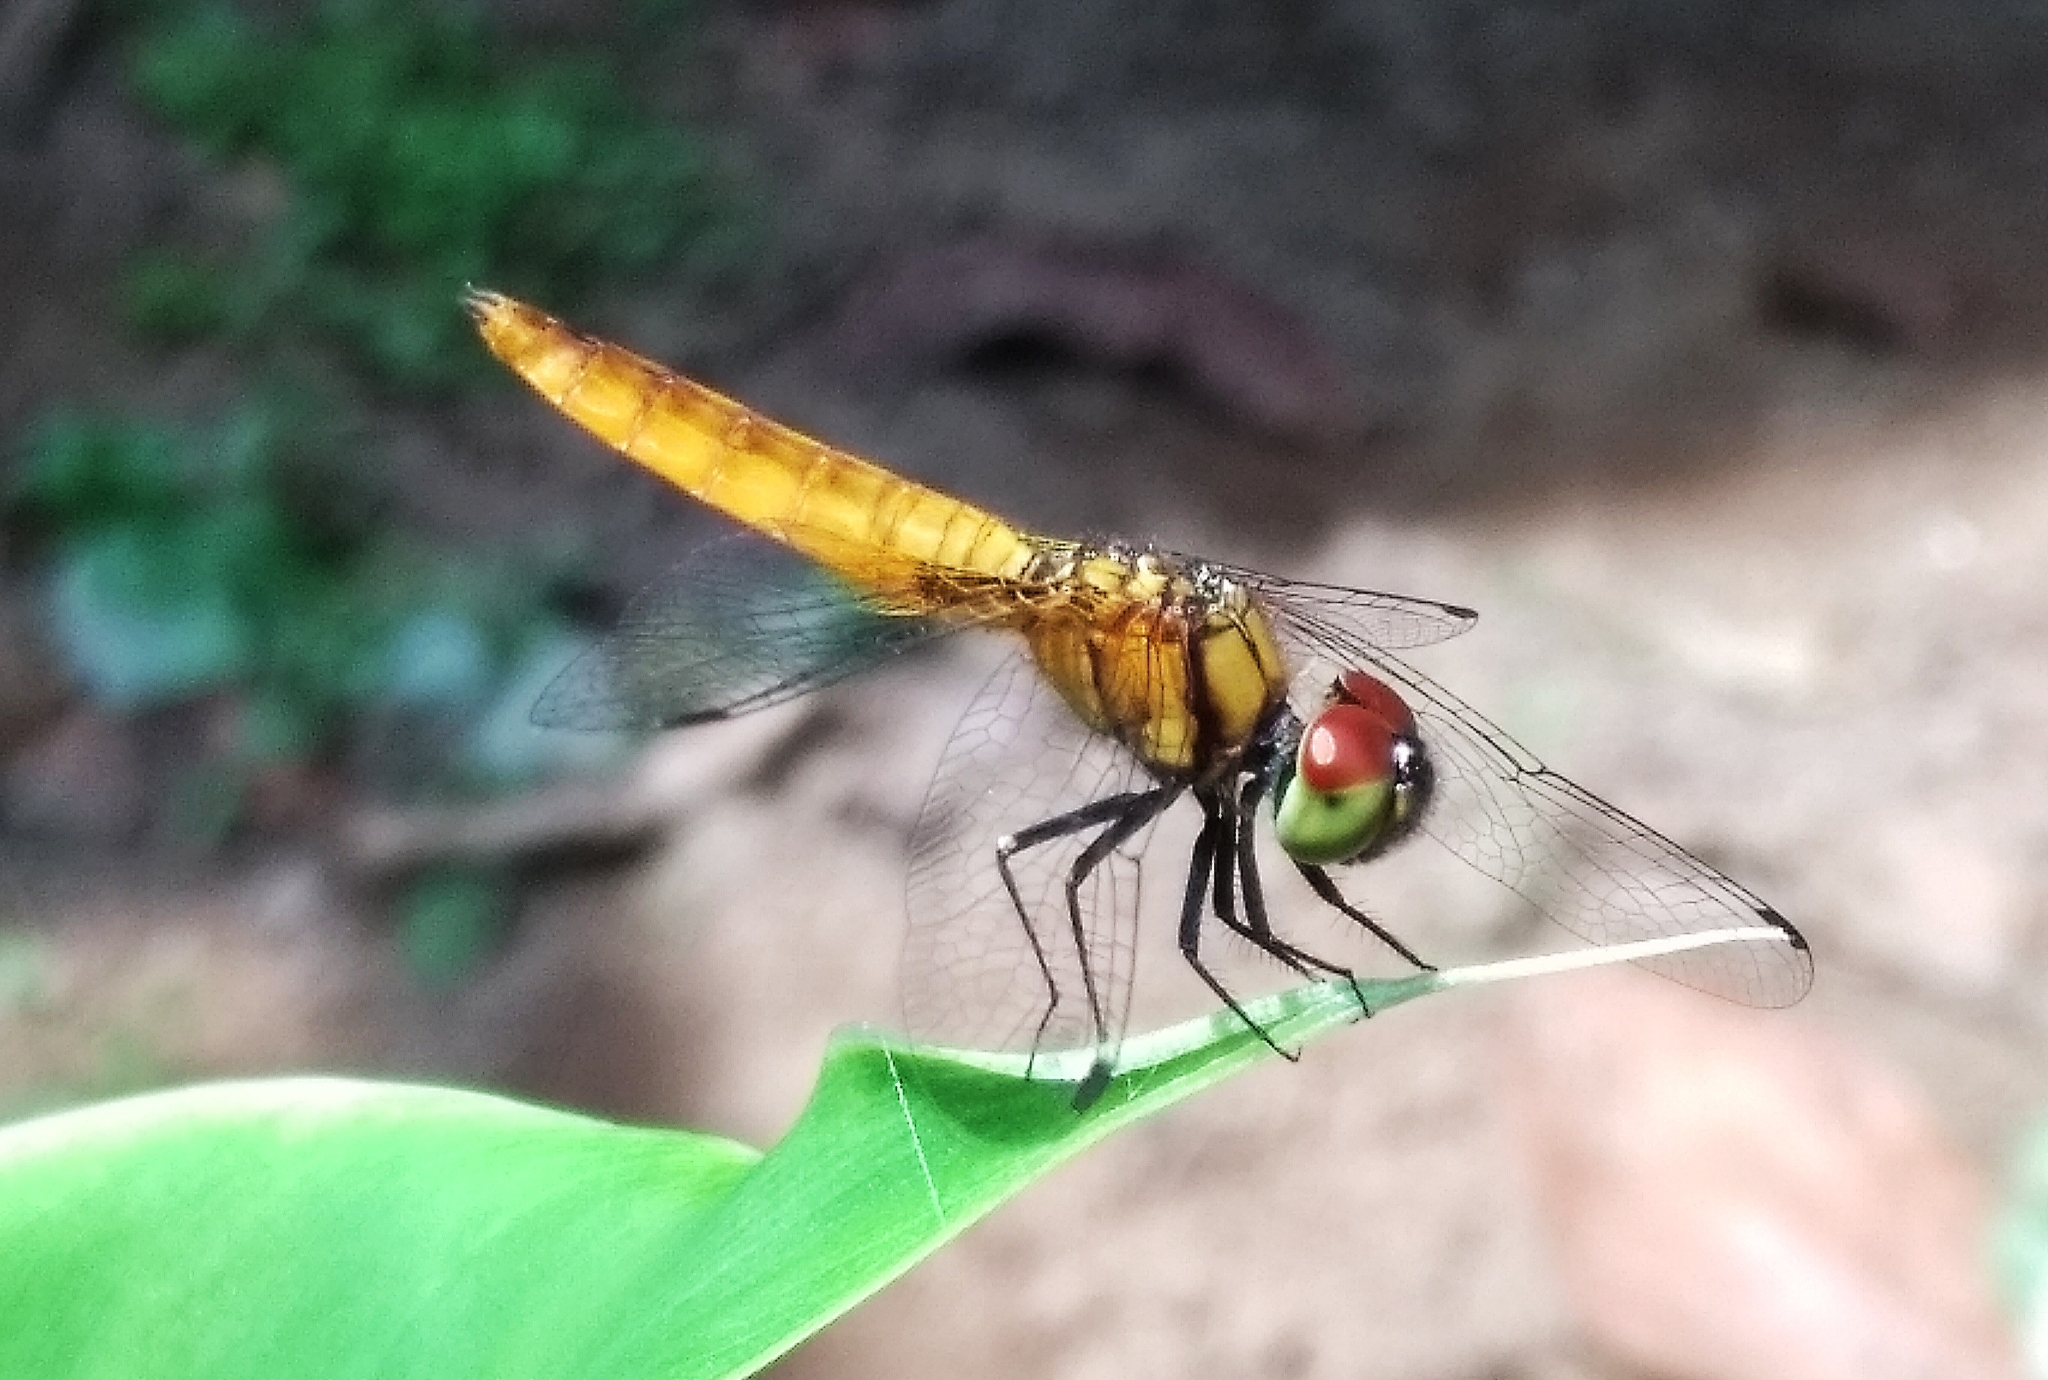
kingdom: Animalia
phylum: Arthropoda
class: Insecta
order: Odonata
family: Libellulidae
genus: Aethriamanta
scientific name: Aethriamanta brevipennis
